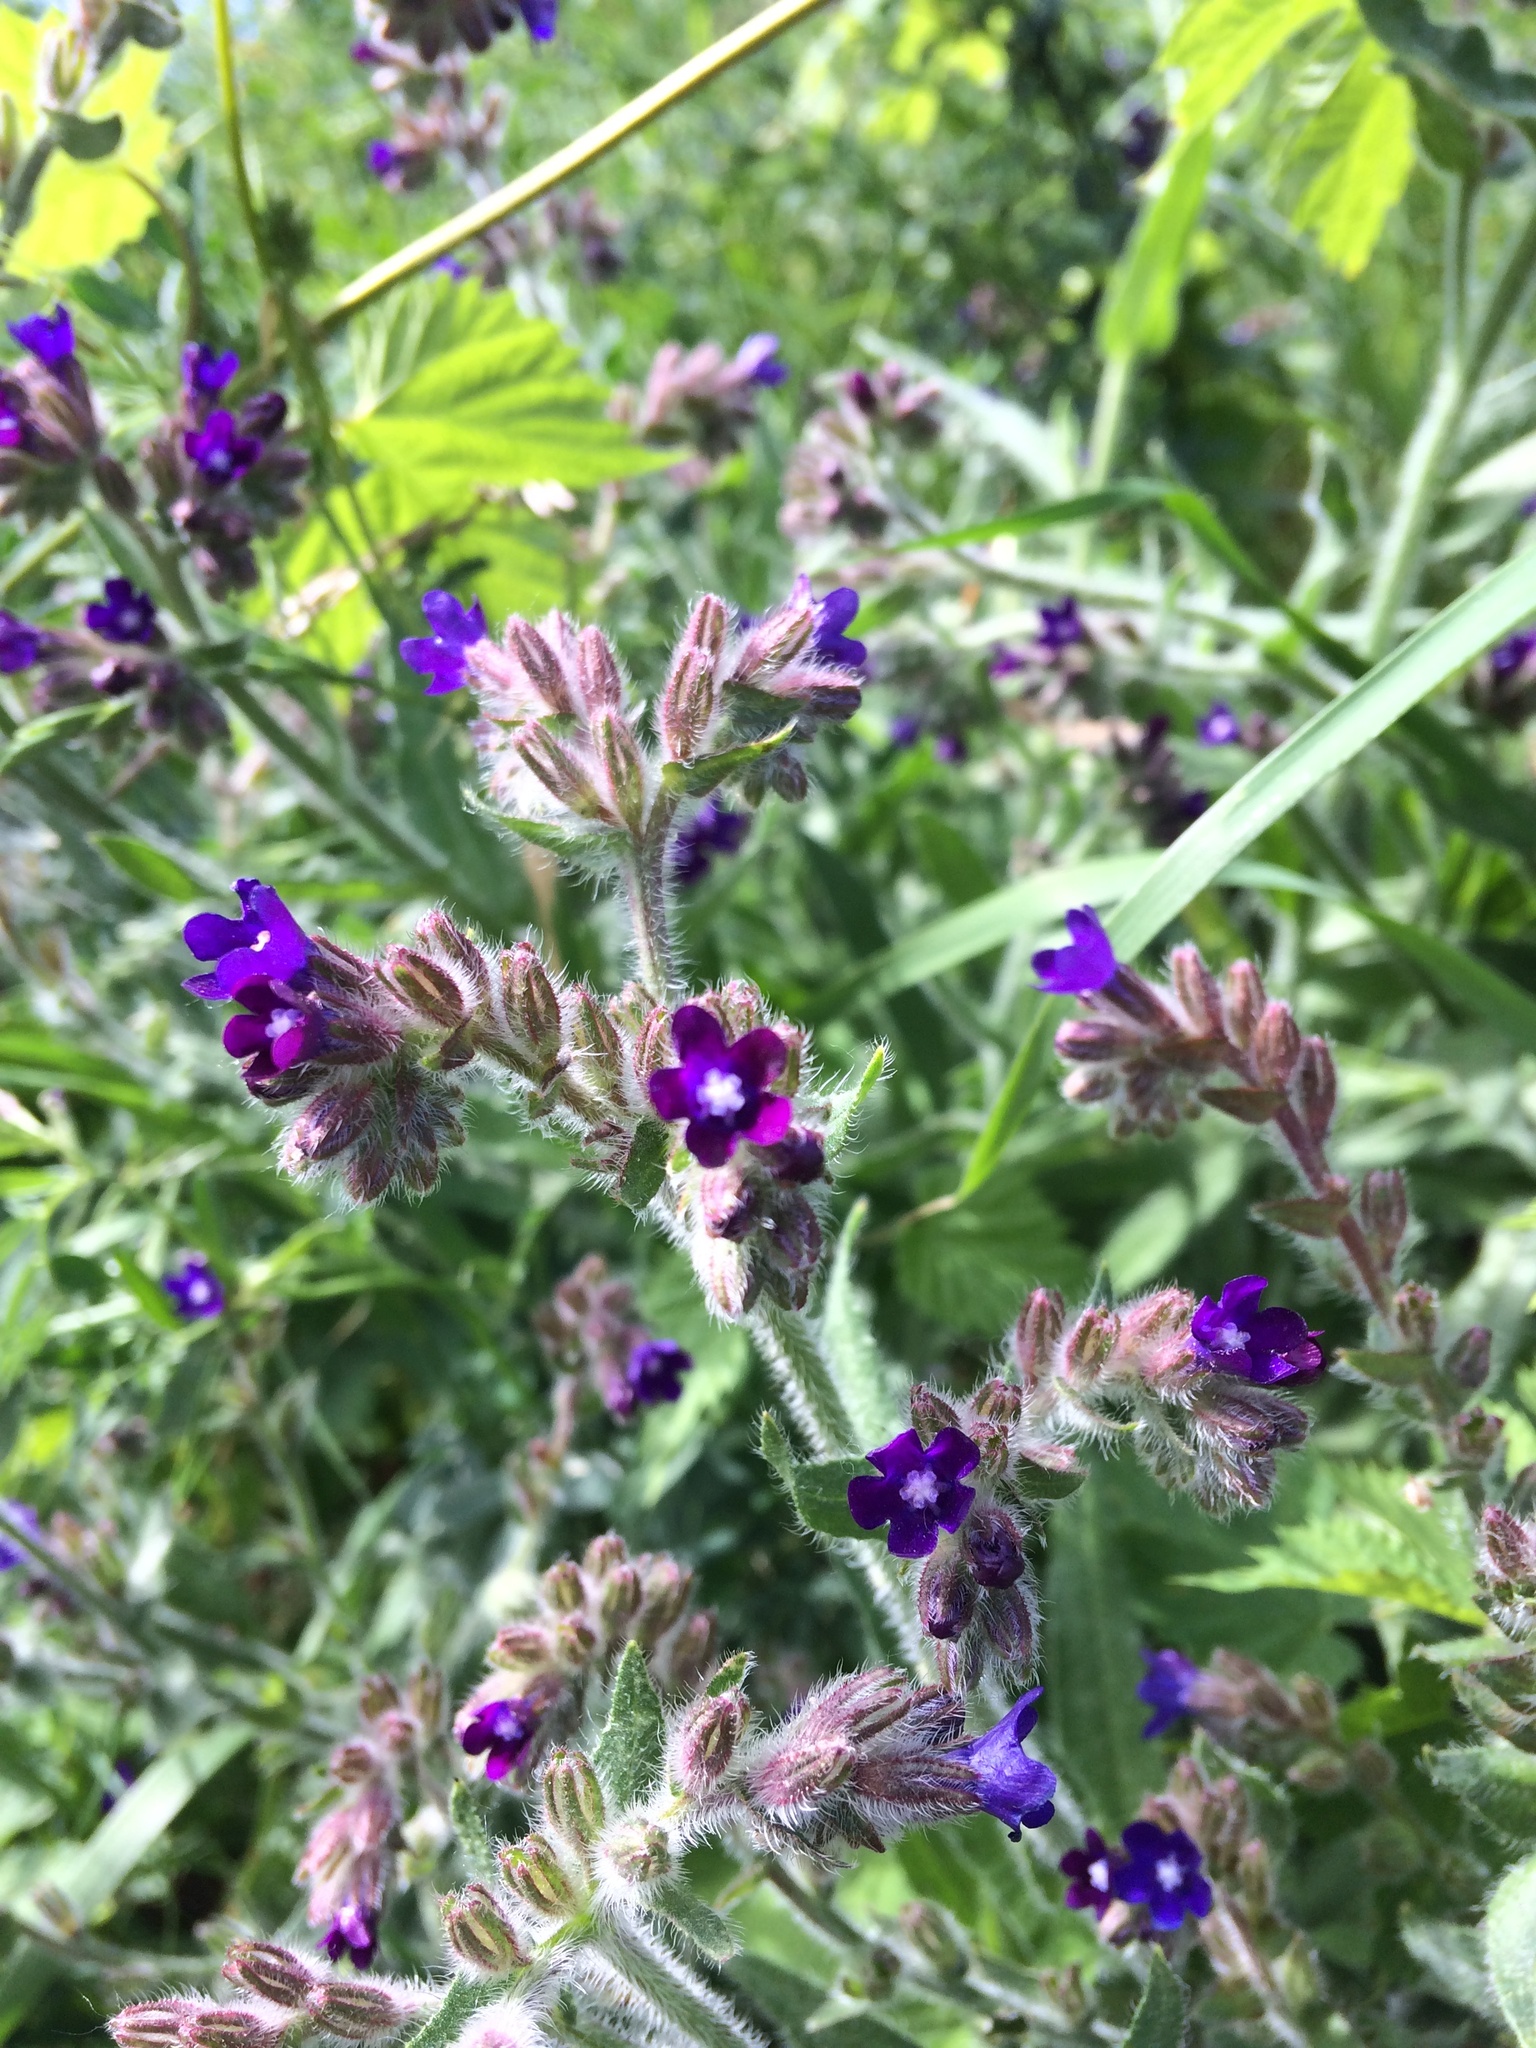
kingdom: Plantae
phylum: Tracheophyta
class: Magnoliopsida
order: Boraginales
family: Boraginaceae
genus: Anchusa
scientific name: Anchusa officinalis
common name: Alkanet
